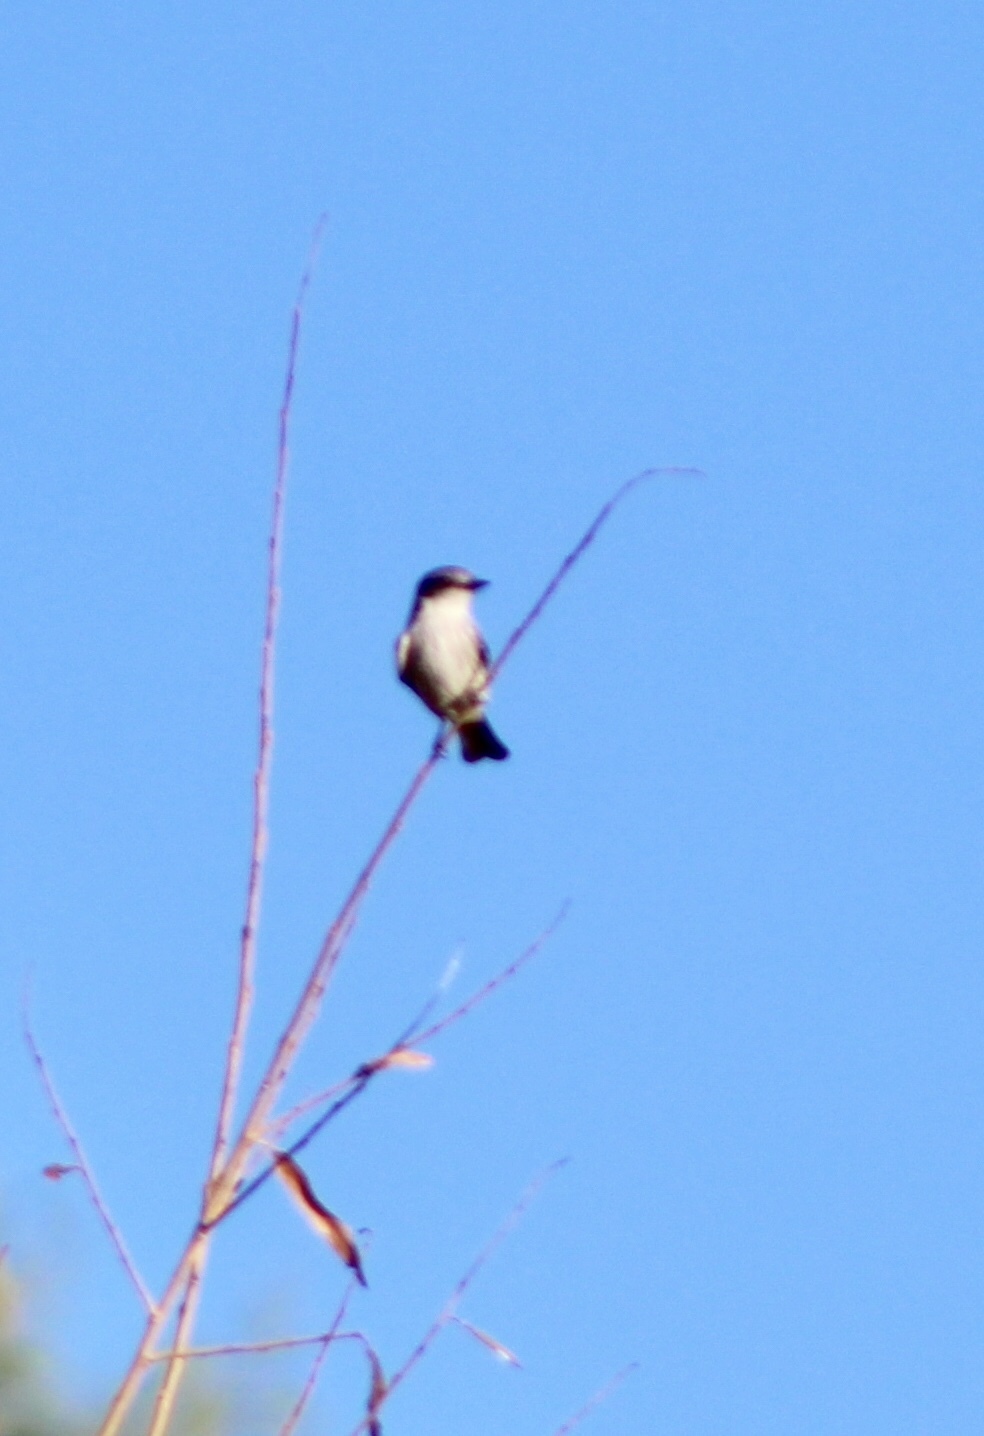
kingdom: Animalia
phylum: Chordata
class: Aves
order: Passeriformes
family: Laniidae
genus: Lanius
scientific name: Lanius ludovicianus
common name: Loggerhead shrike
